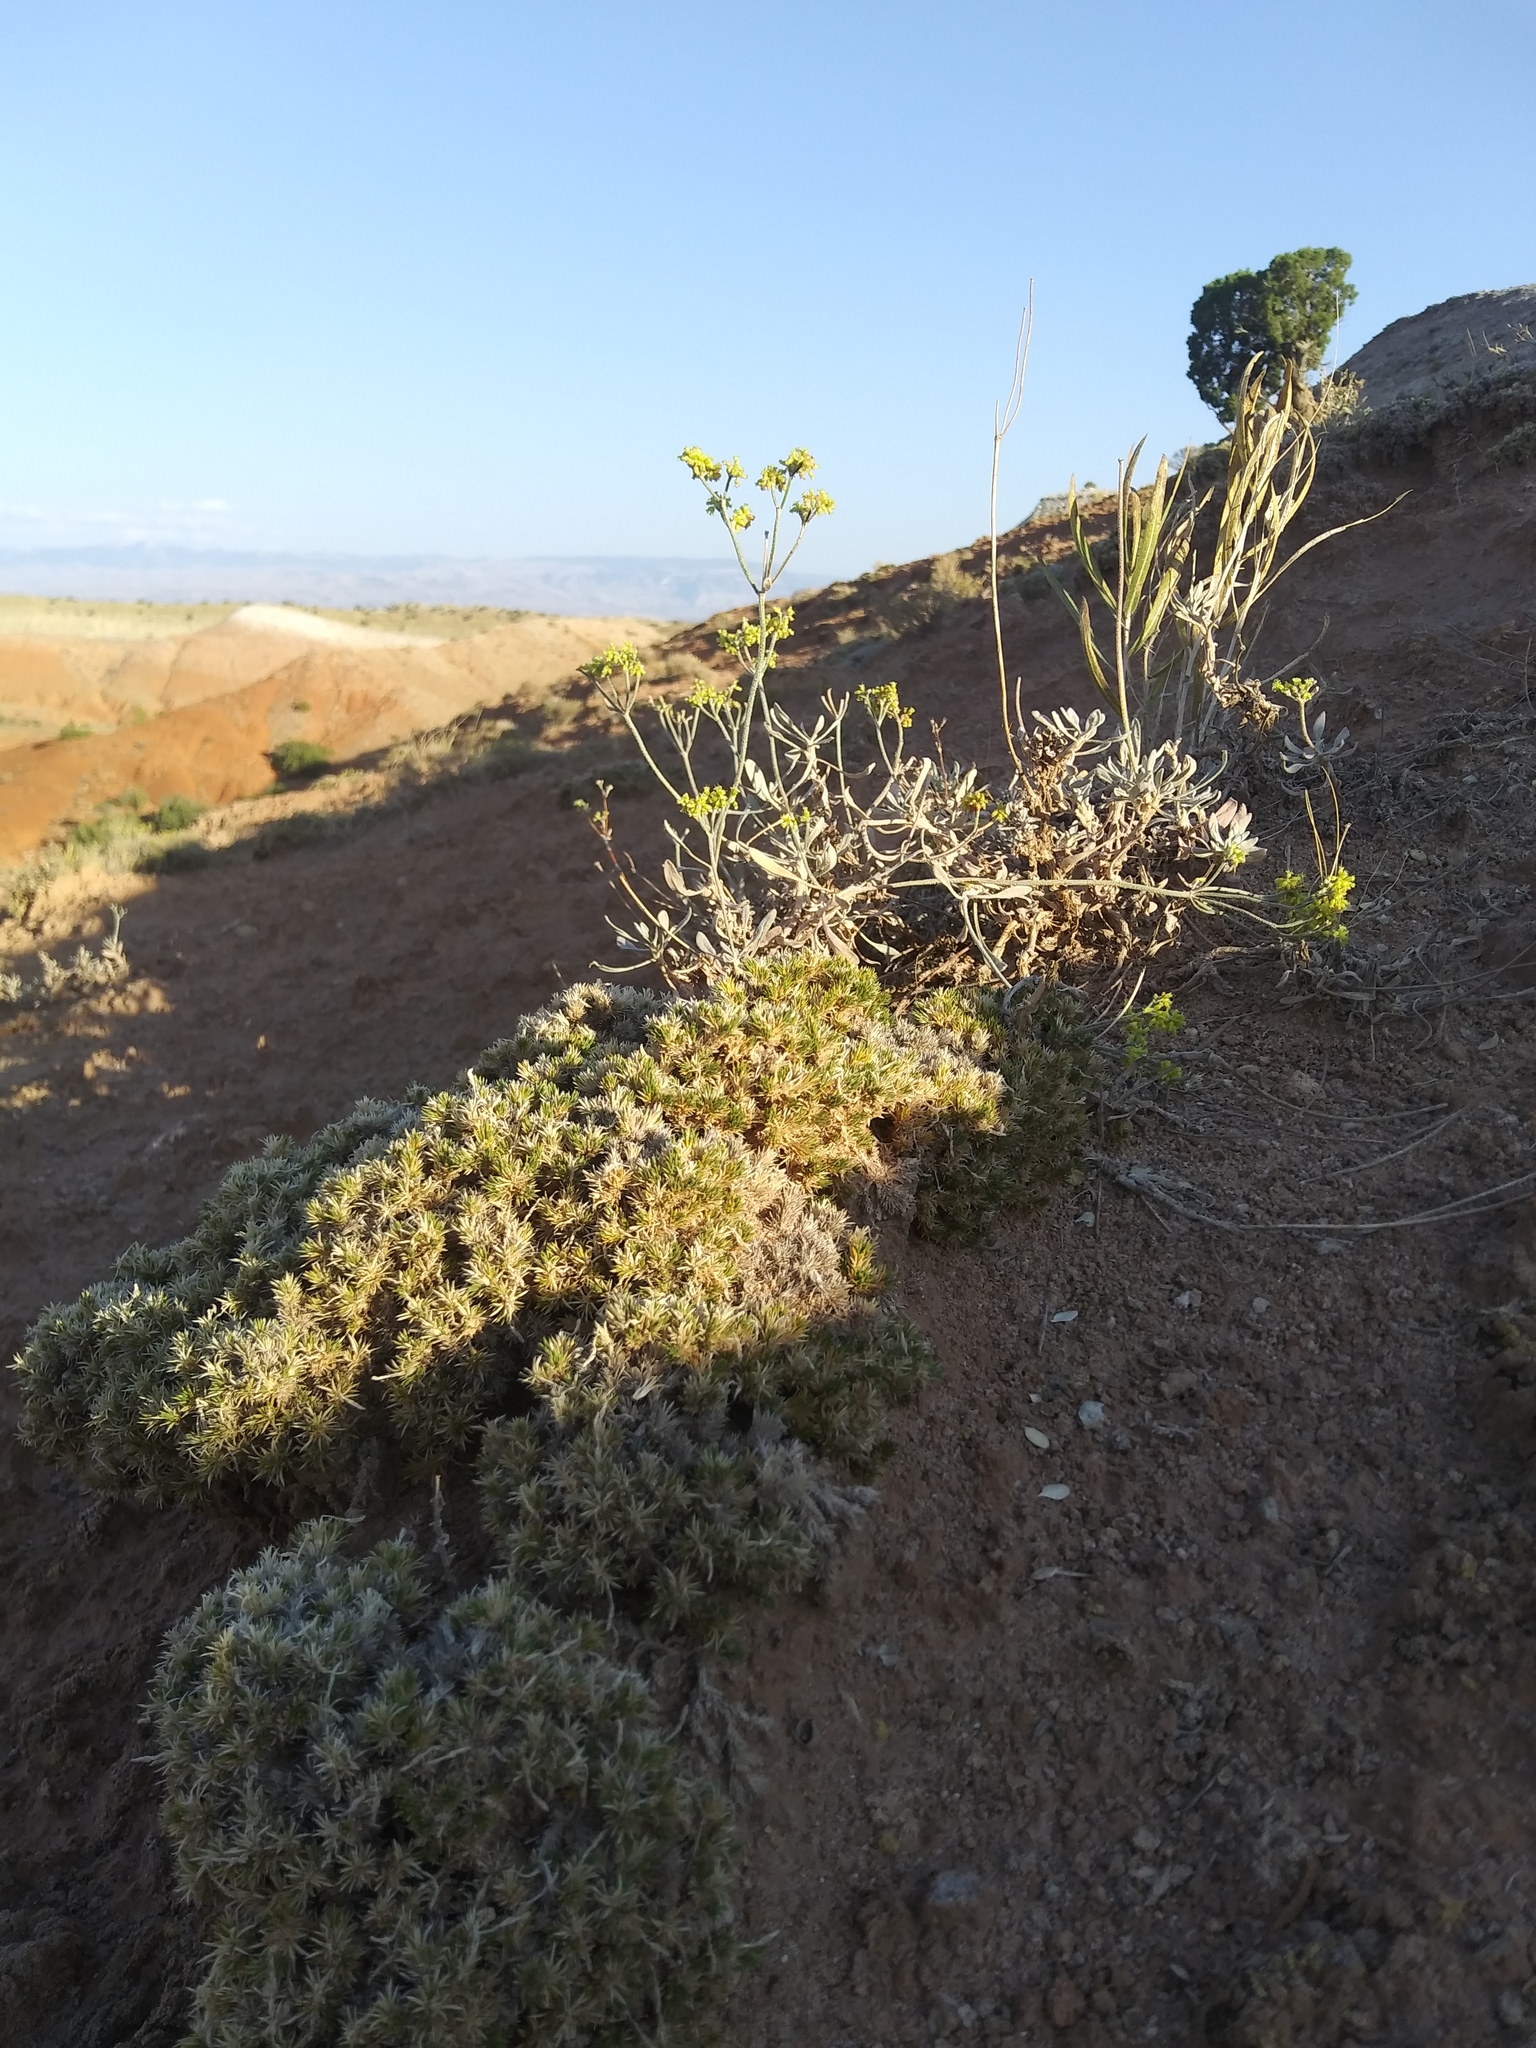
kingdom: Plantae
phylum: Tracheophyta
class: Magnoliopsida
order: Caryophyllales
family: Polygonaceae
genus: Eriogonum
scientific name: Eriogonum brevicaule
